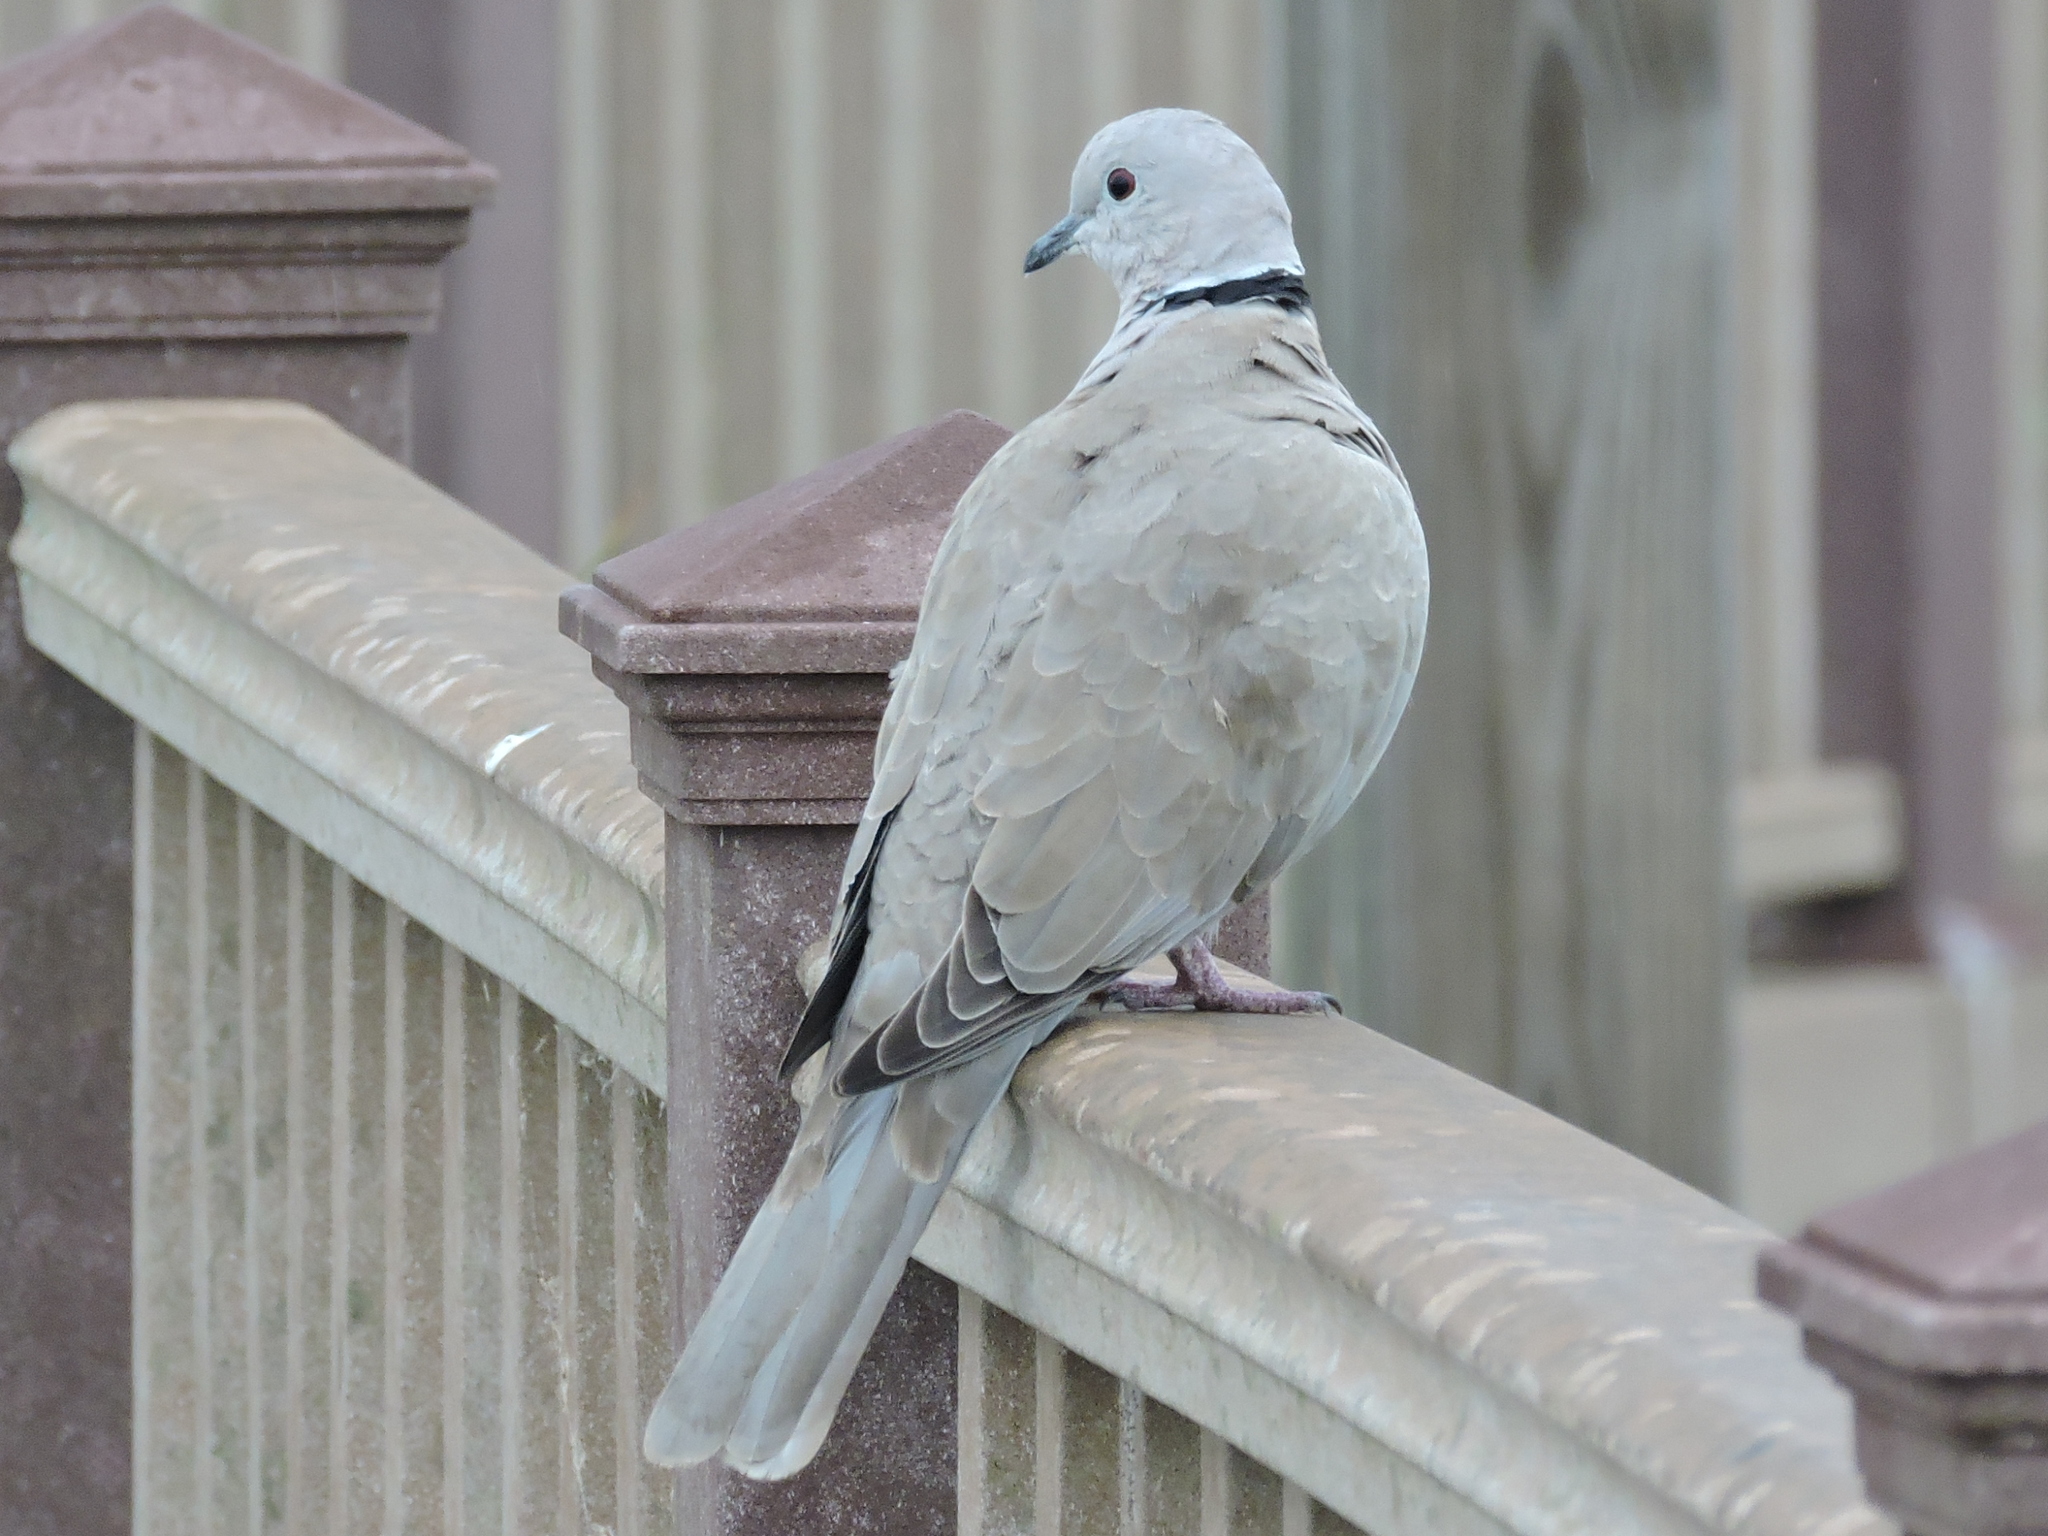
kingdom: Animalia
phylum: Chordata
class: Aves
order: Columbiformes
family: Columbidae
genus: Streptopelia
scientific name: Streptopelia decaocto
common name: Eurasian collared dove
